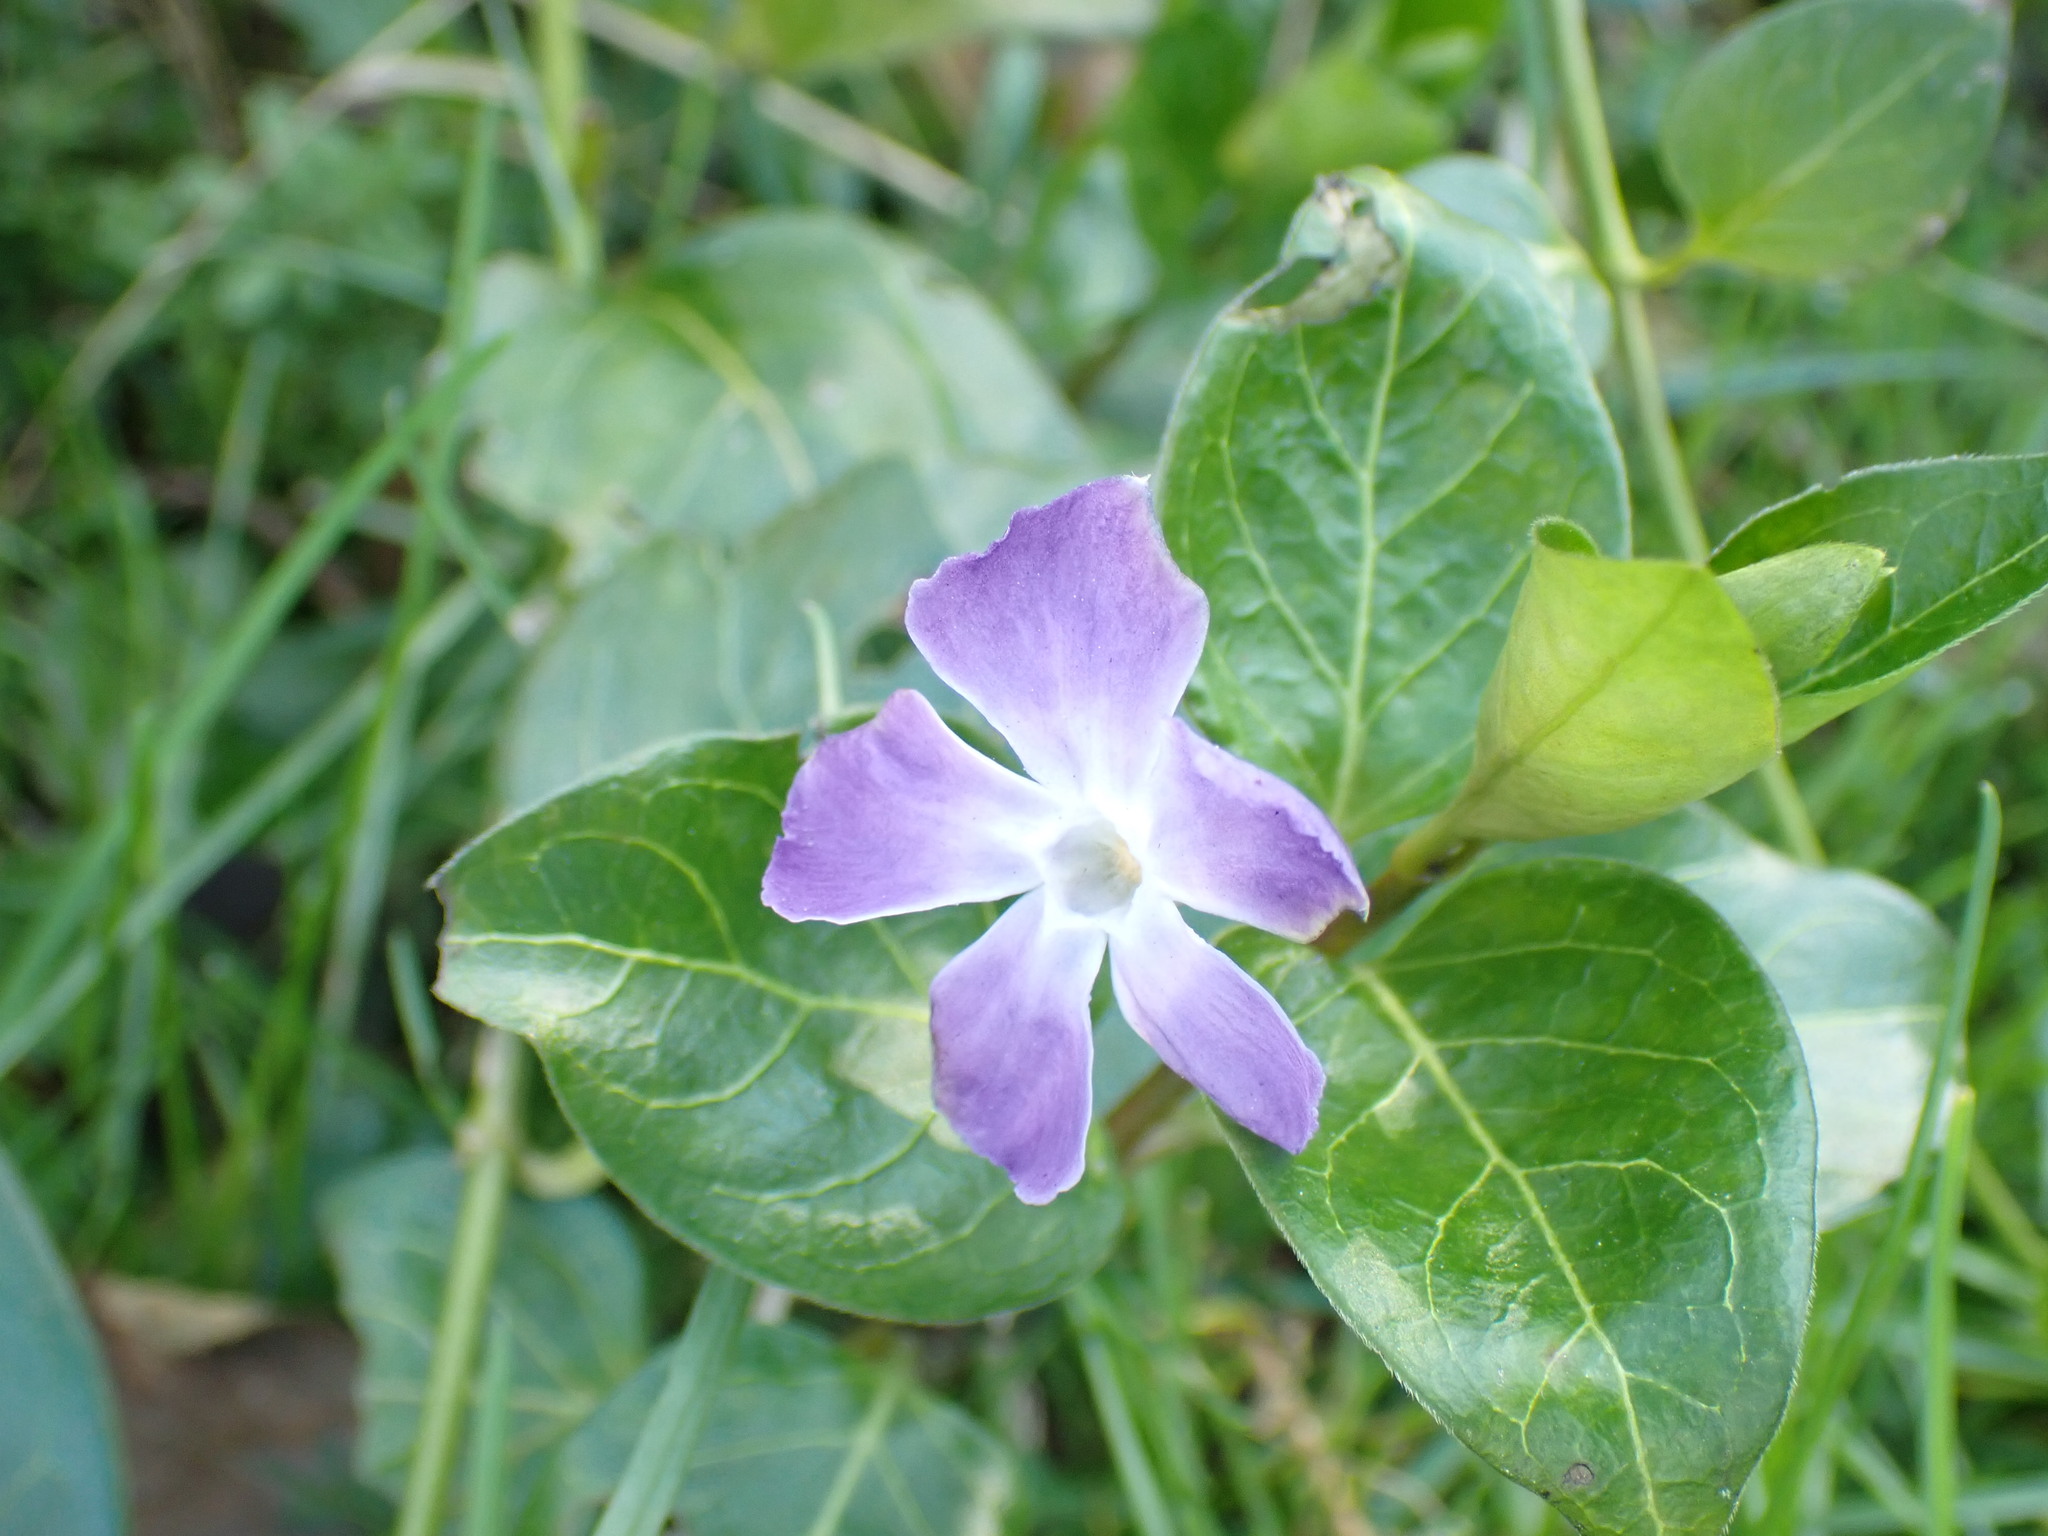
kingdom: Plantae
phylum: Tracheophyta
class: Magnoliopsida
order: Gentianales
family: Apocynaceae
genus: Vinca
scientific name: Vinca major
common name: Greater periwinkle
